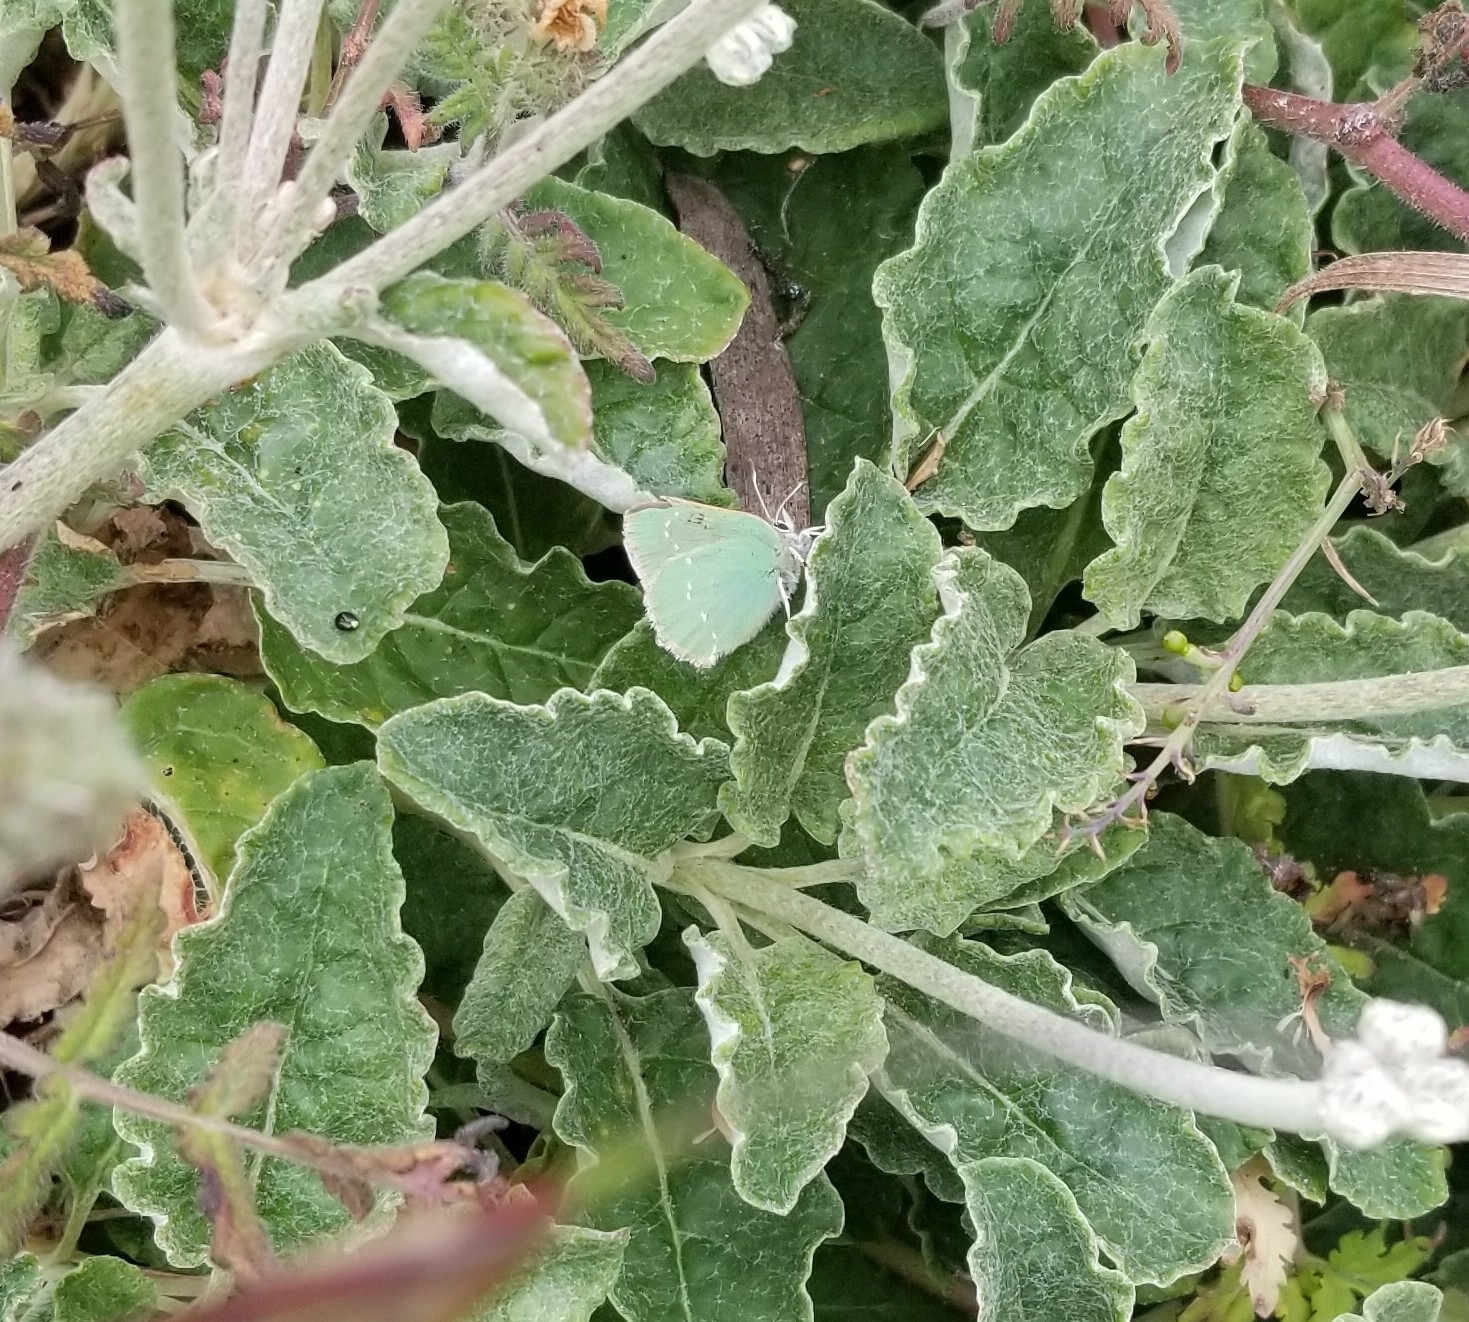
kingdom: Animalia
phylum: Arthropoda
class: Insecta
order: Lepidoptera
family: Lycaenidae
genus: Callophrys
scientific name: Callophrys viridis
